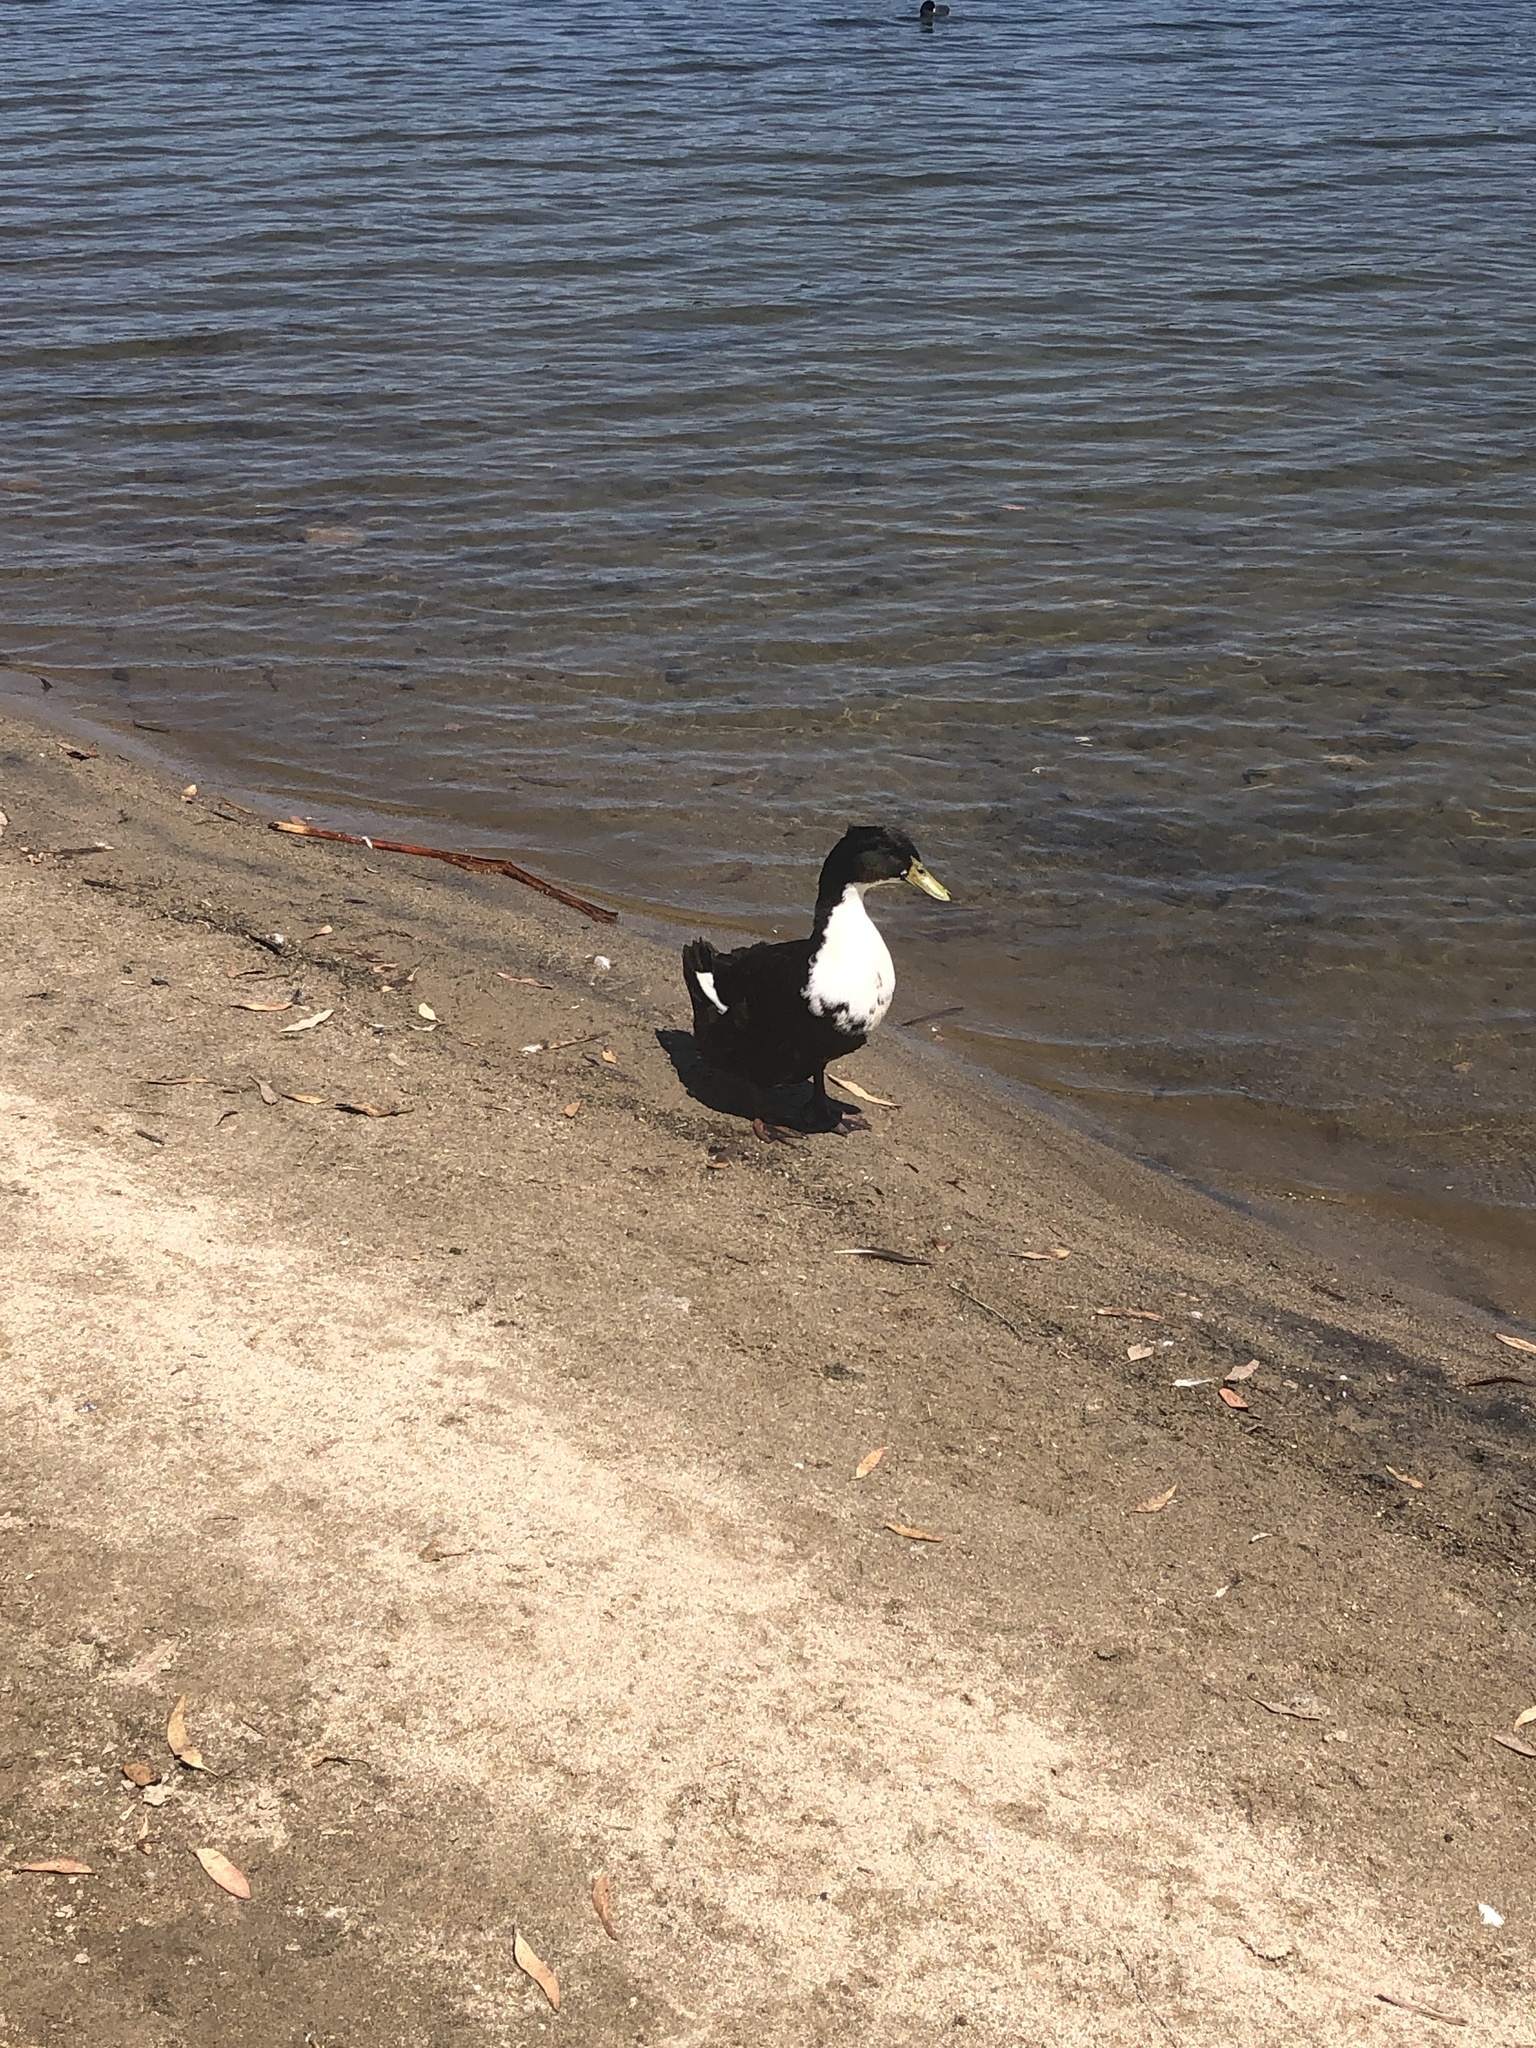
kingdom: Animalia
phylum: Chordata
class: Aves
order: Anseriformes
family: Anatidae
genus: Anas
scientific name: Anas platyrhynchos
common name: Mallard
